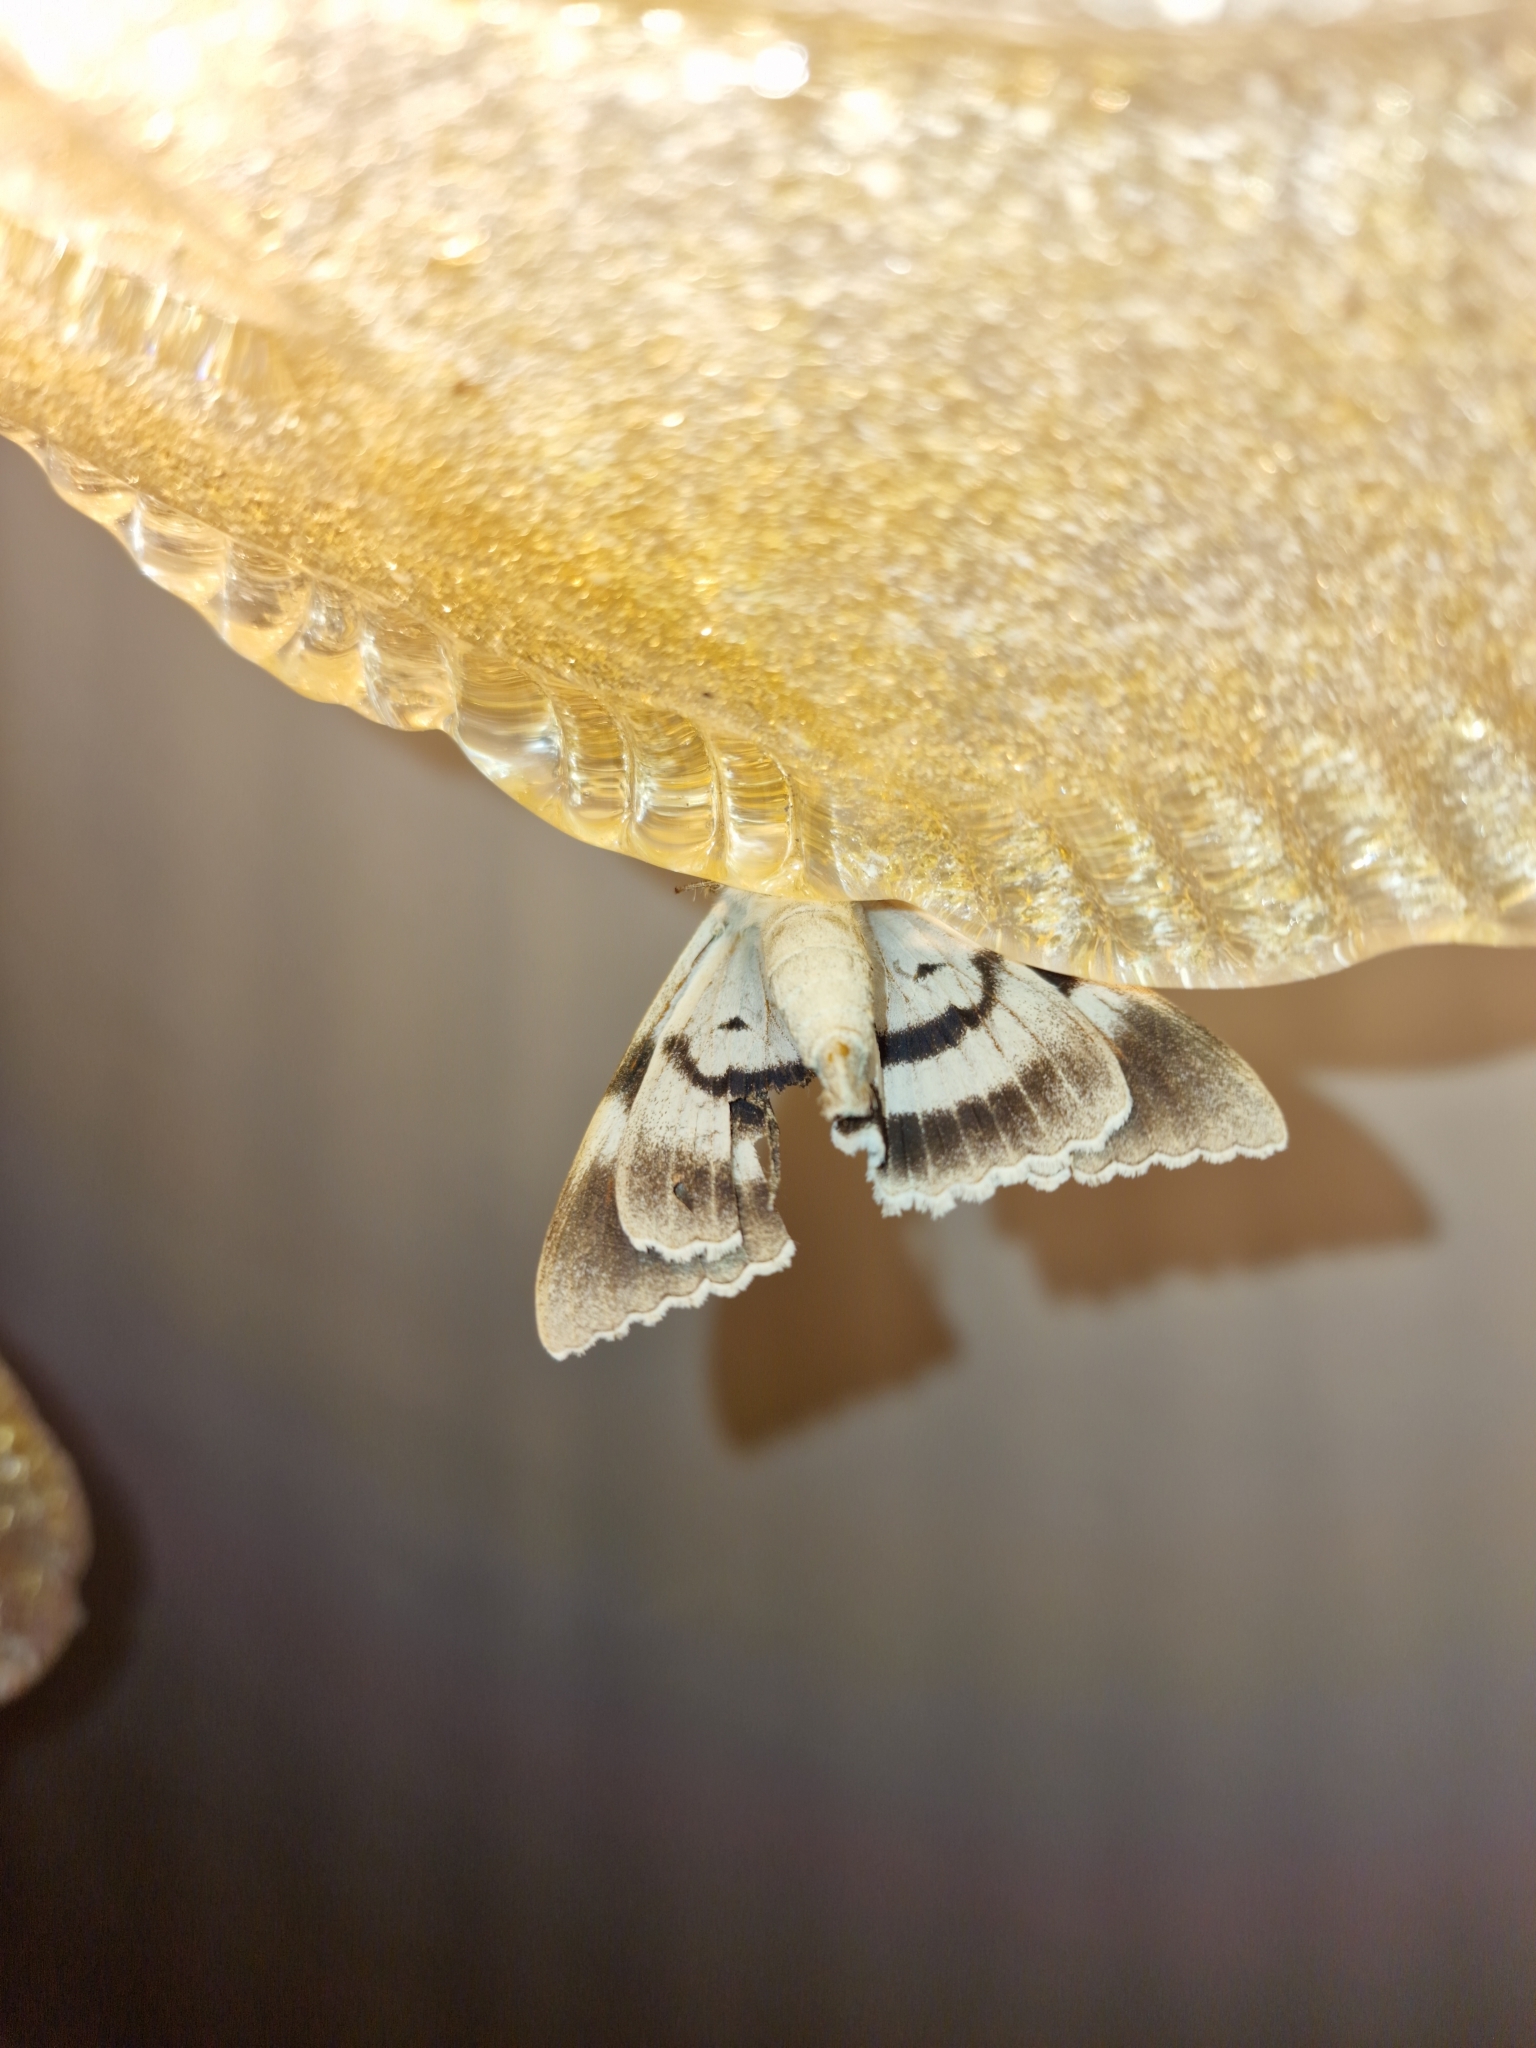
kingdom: Animalia
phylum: Arthropoda
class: Insecta
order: Lepidoptera
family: Erebidae
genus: Catocala
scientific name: Catocala fraxini
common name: Clifden nonpareil
